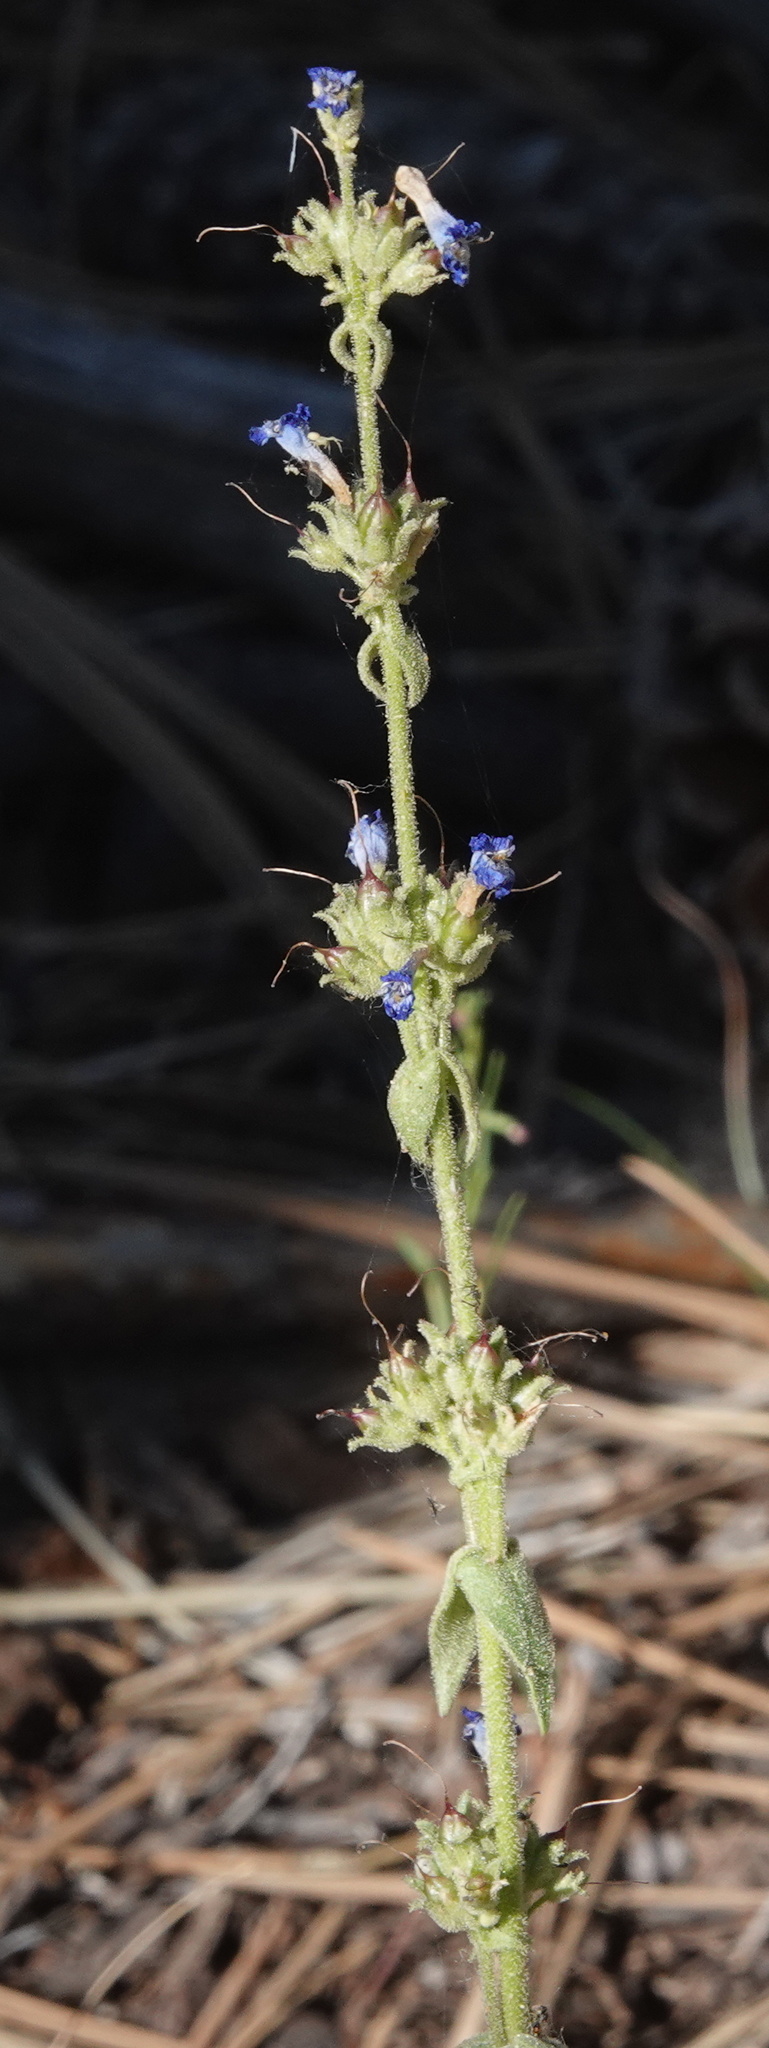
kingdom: Plantae
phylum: Tracheophyta
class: Magnoliopsida
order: Lamiales
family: Plantaginaceae
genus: Penstemon
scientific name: Penstemon humilis
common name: Low penstemon
